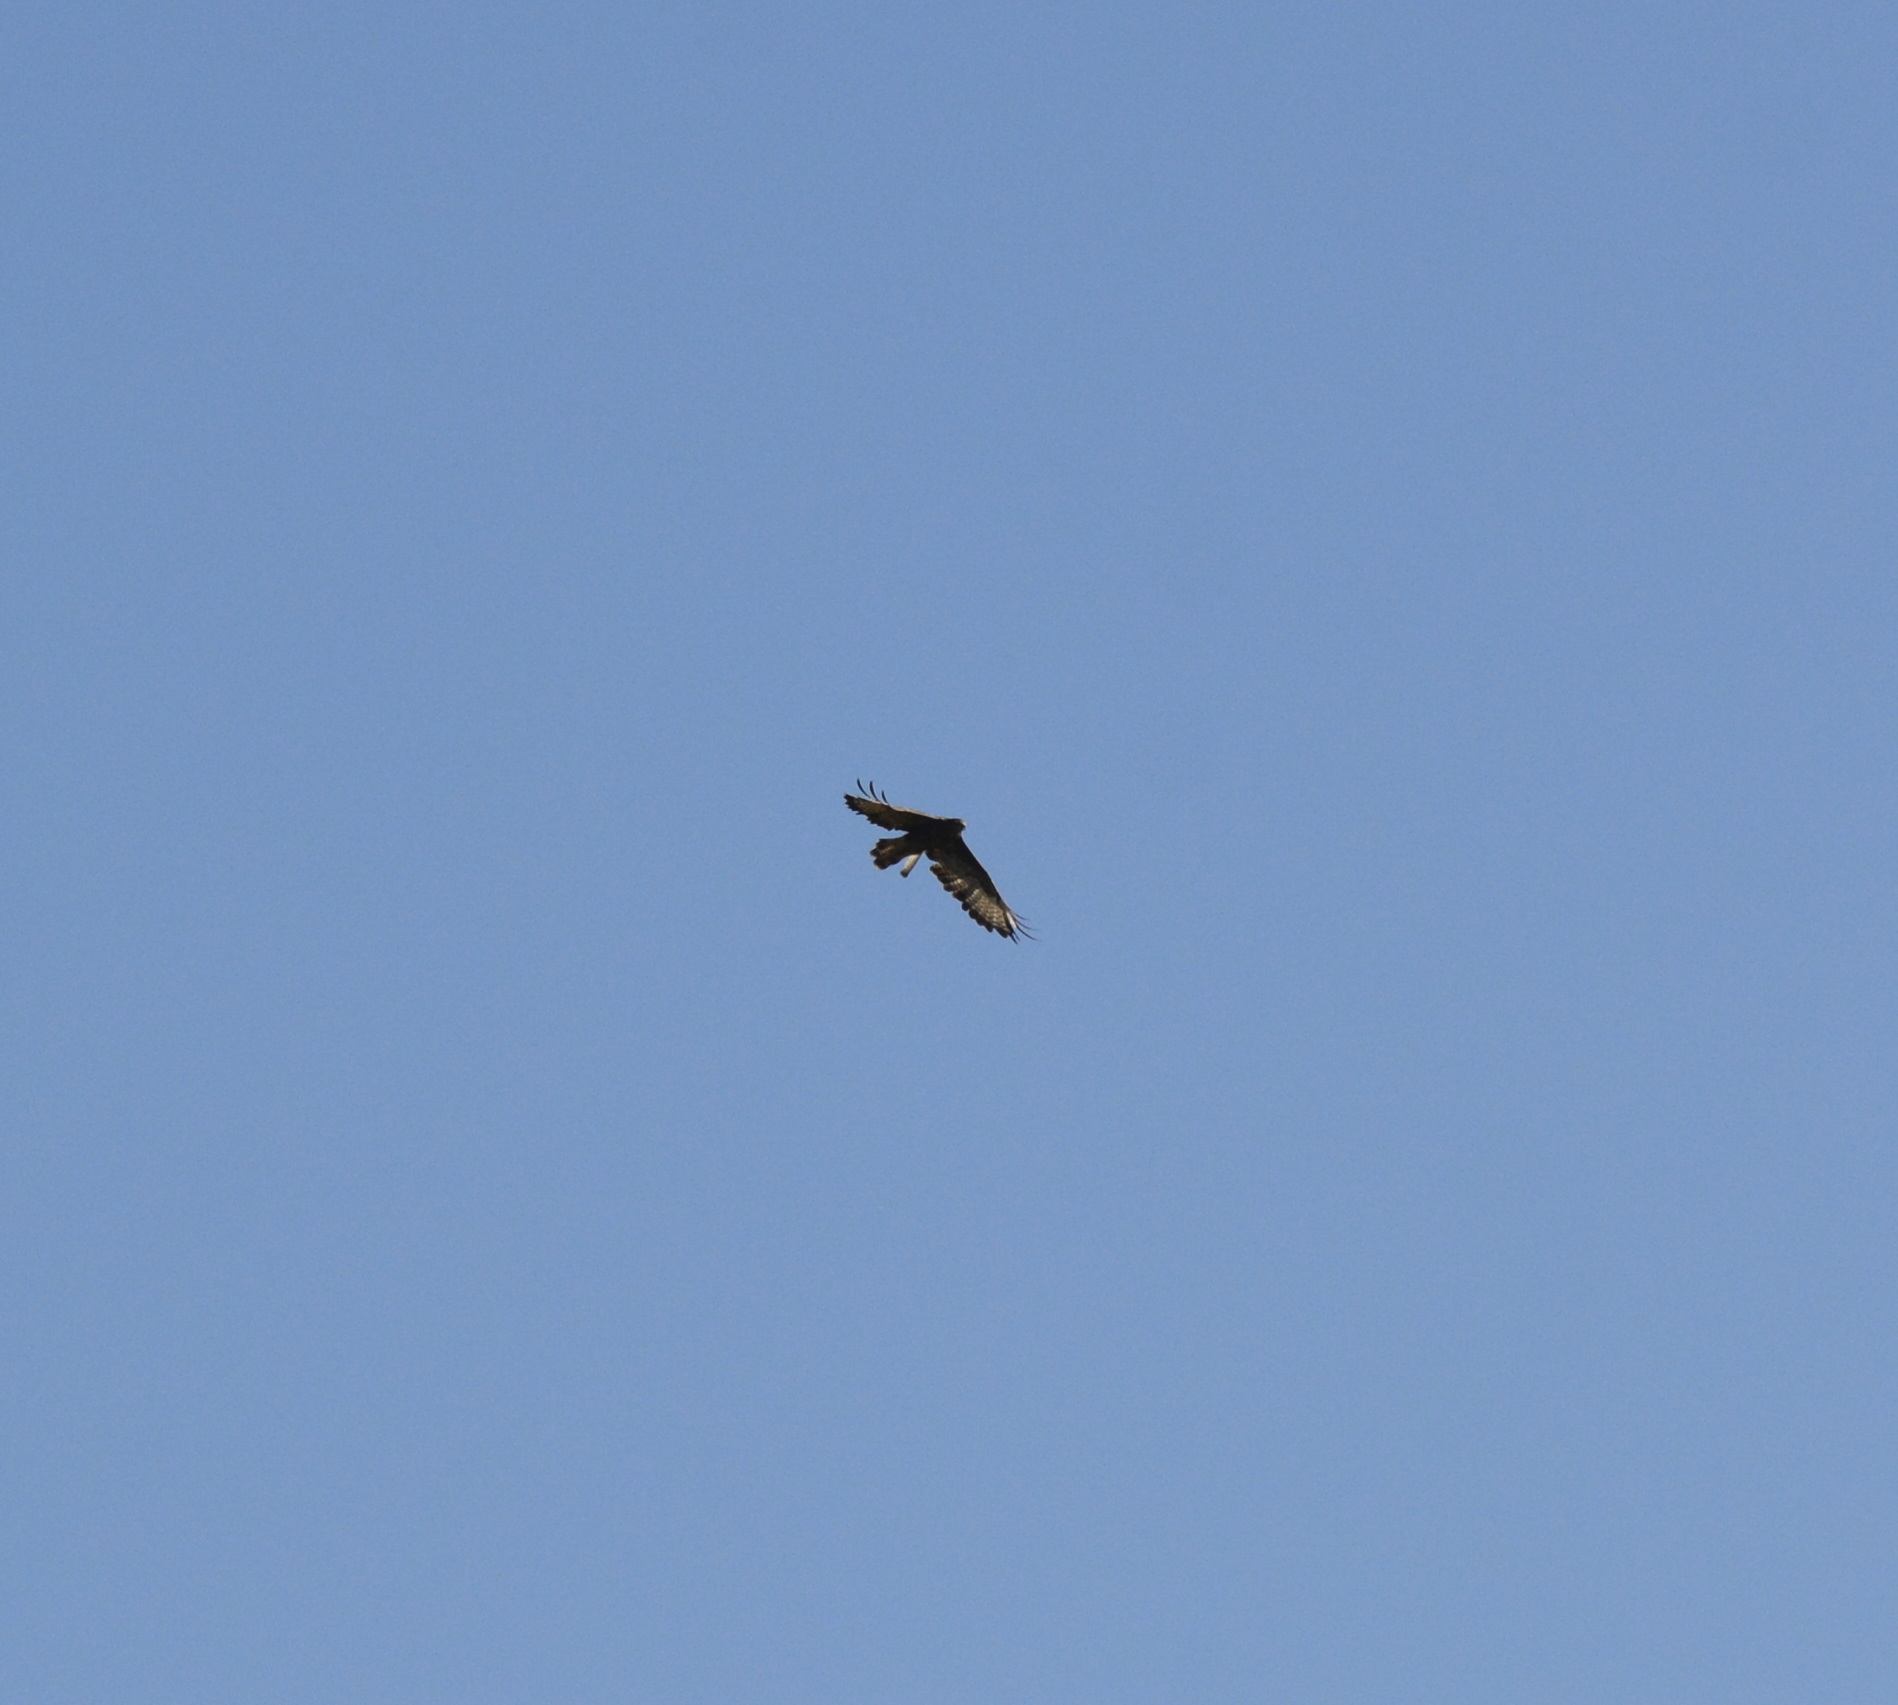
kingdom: Animalia
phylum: Chordata
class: Aves
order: Accipitriformes
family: Accipitridae
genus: Buteo
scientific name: Buteo buteo
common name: Common buzzard
